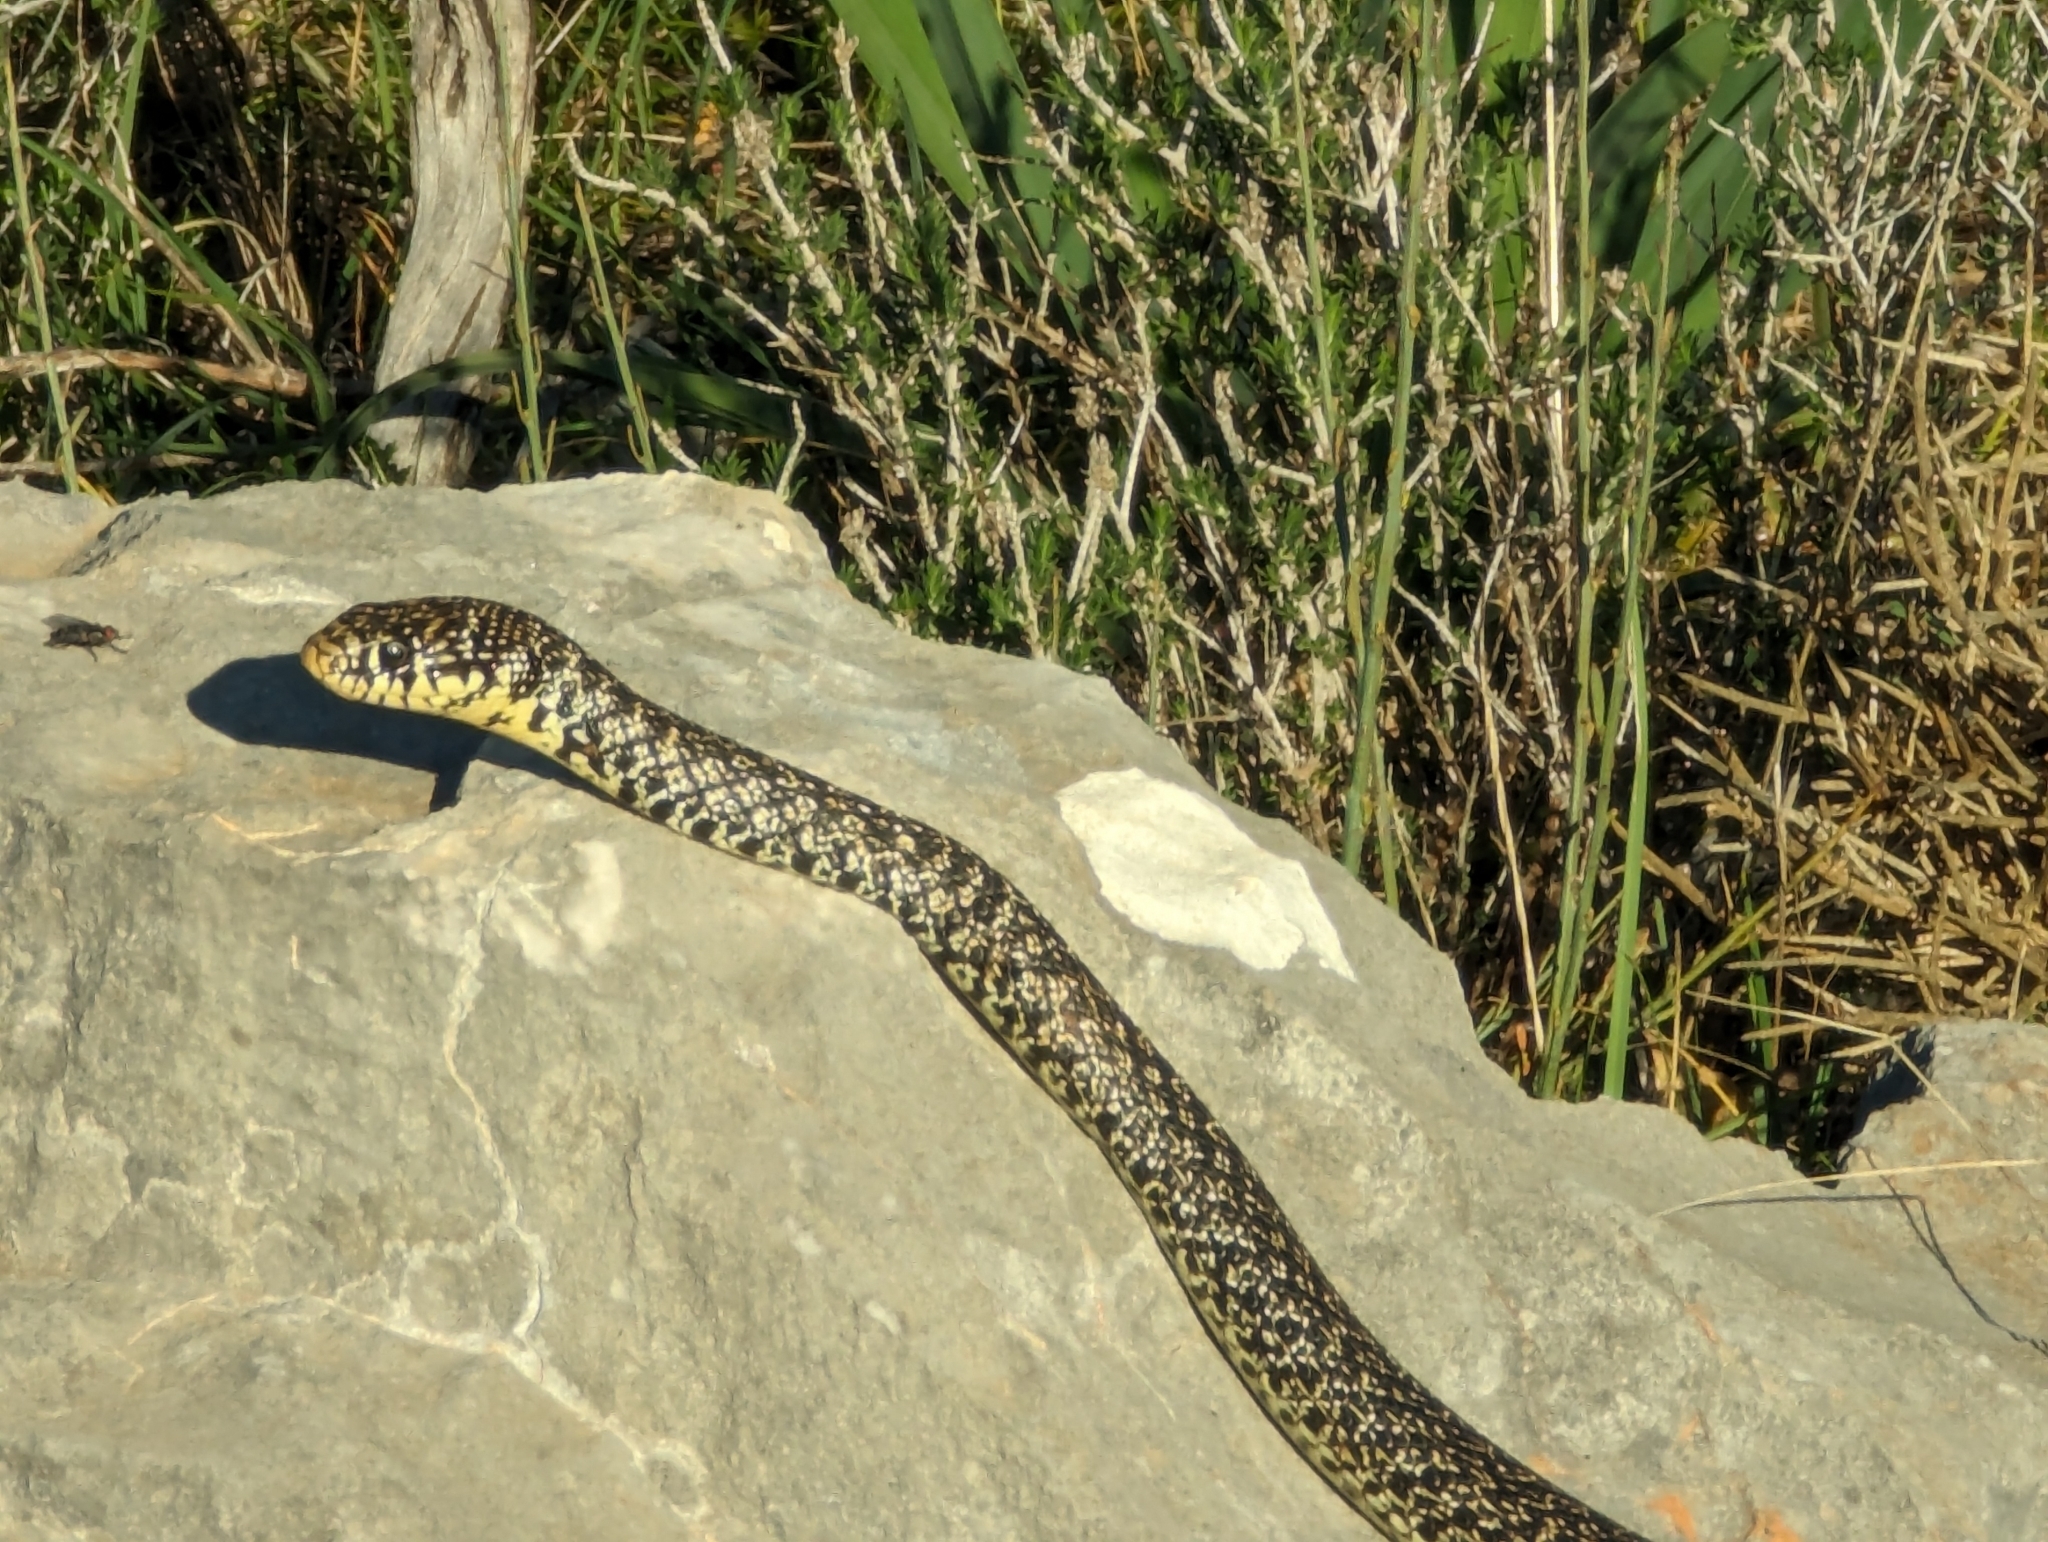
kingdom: Animalia
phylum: Chordata
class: Squamata
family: Colubridae
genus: Hierophis
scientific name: Hierophis gemonensis
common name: Balkan whip snake
